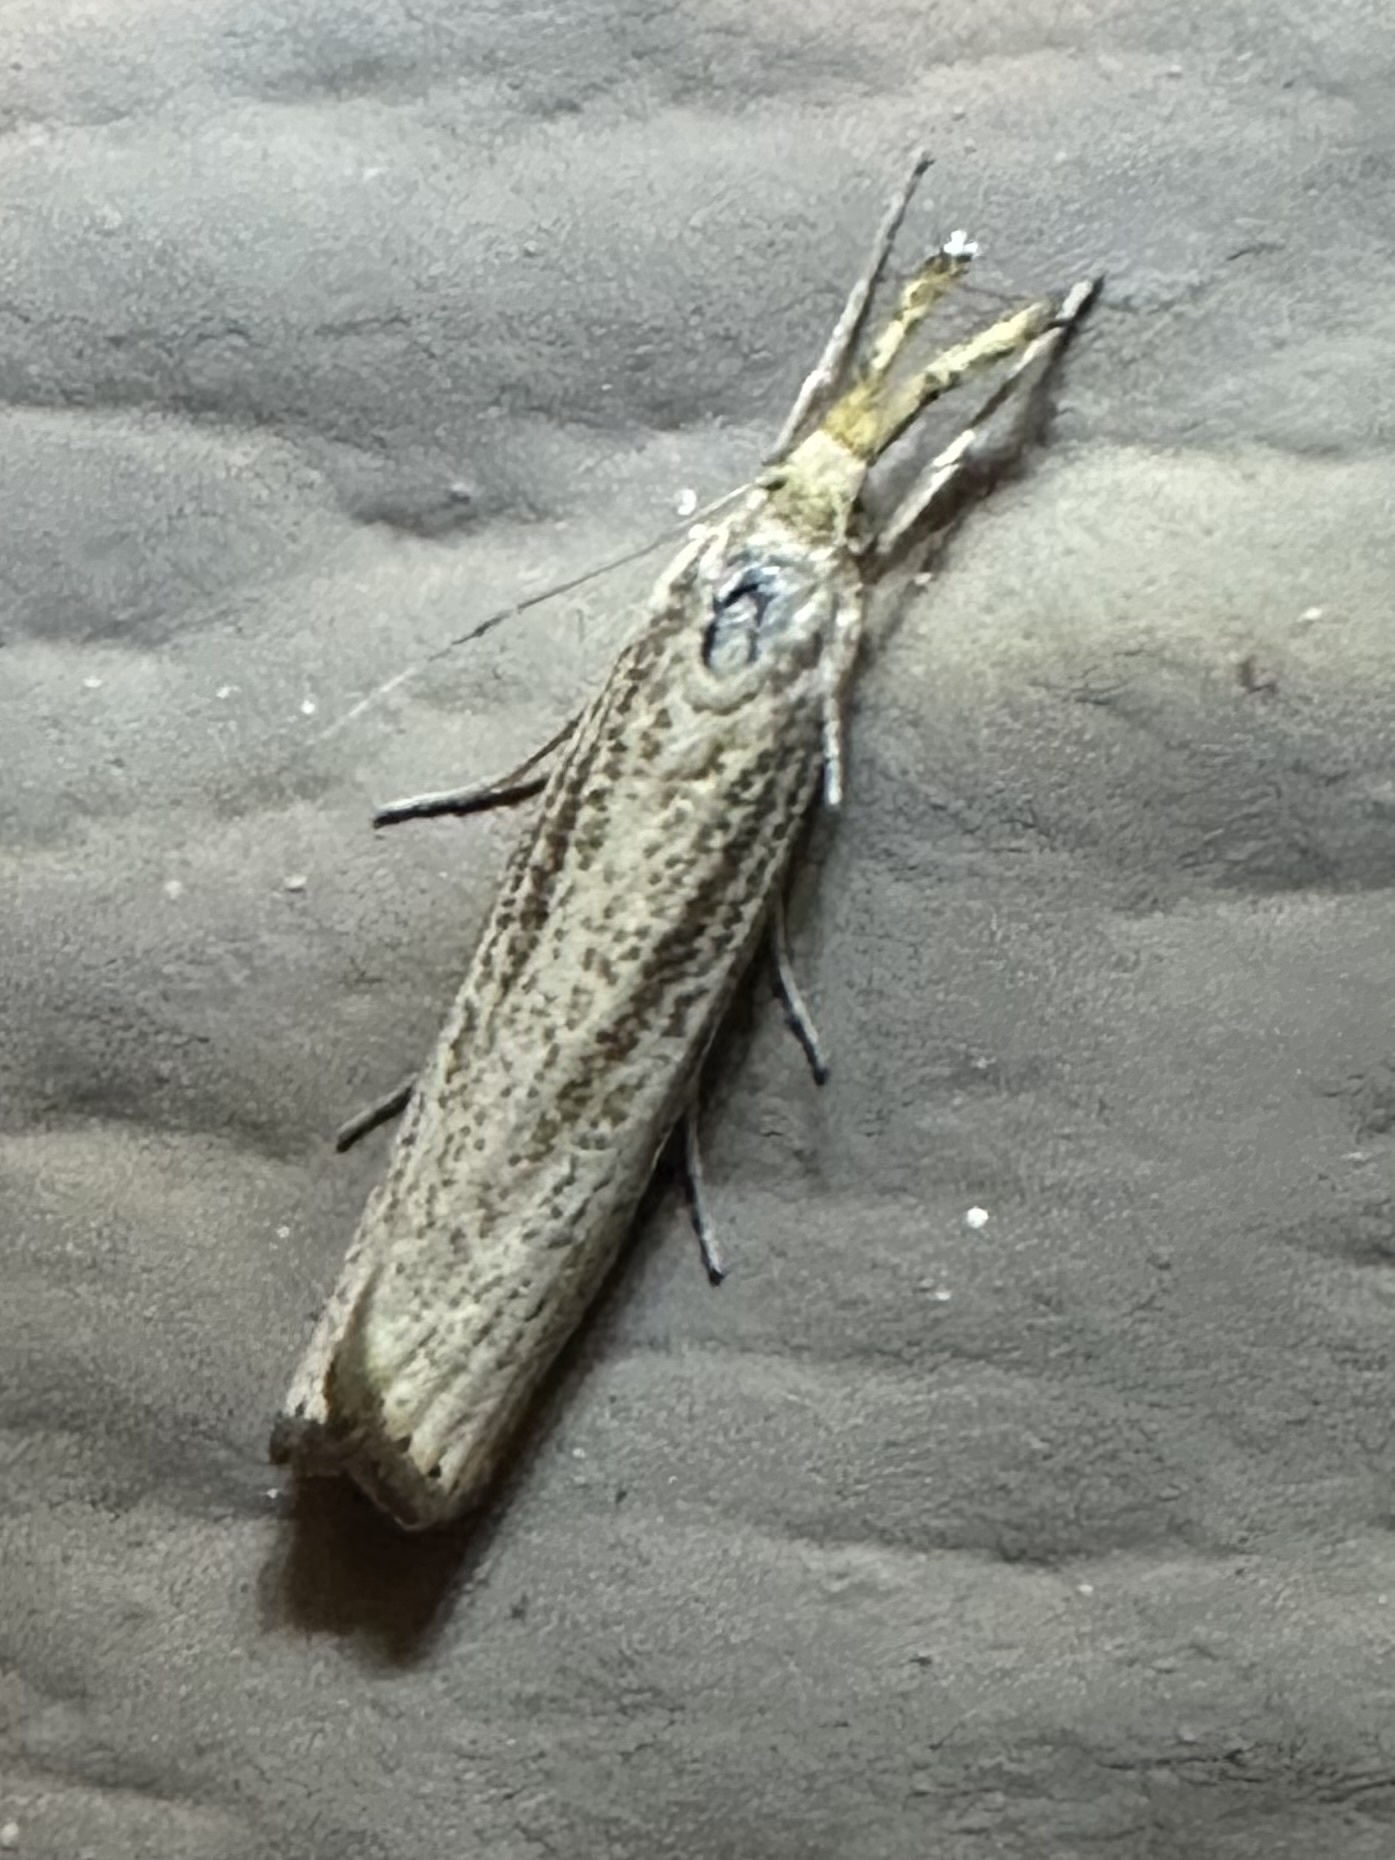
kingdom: Animalia
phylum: Arthropoda
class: Insecta
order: Lepidoptera
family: Crambidae
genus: Agriphila
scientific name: Agriphila vulgivagellus
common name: Vagabond crambus moth
